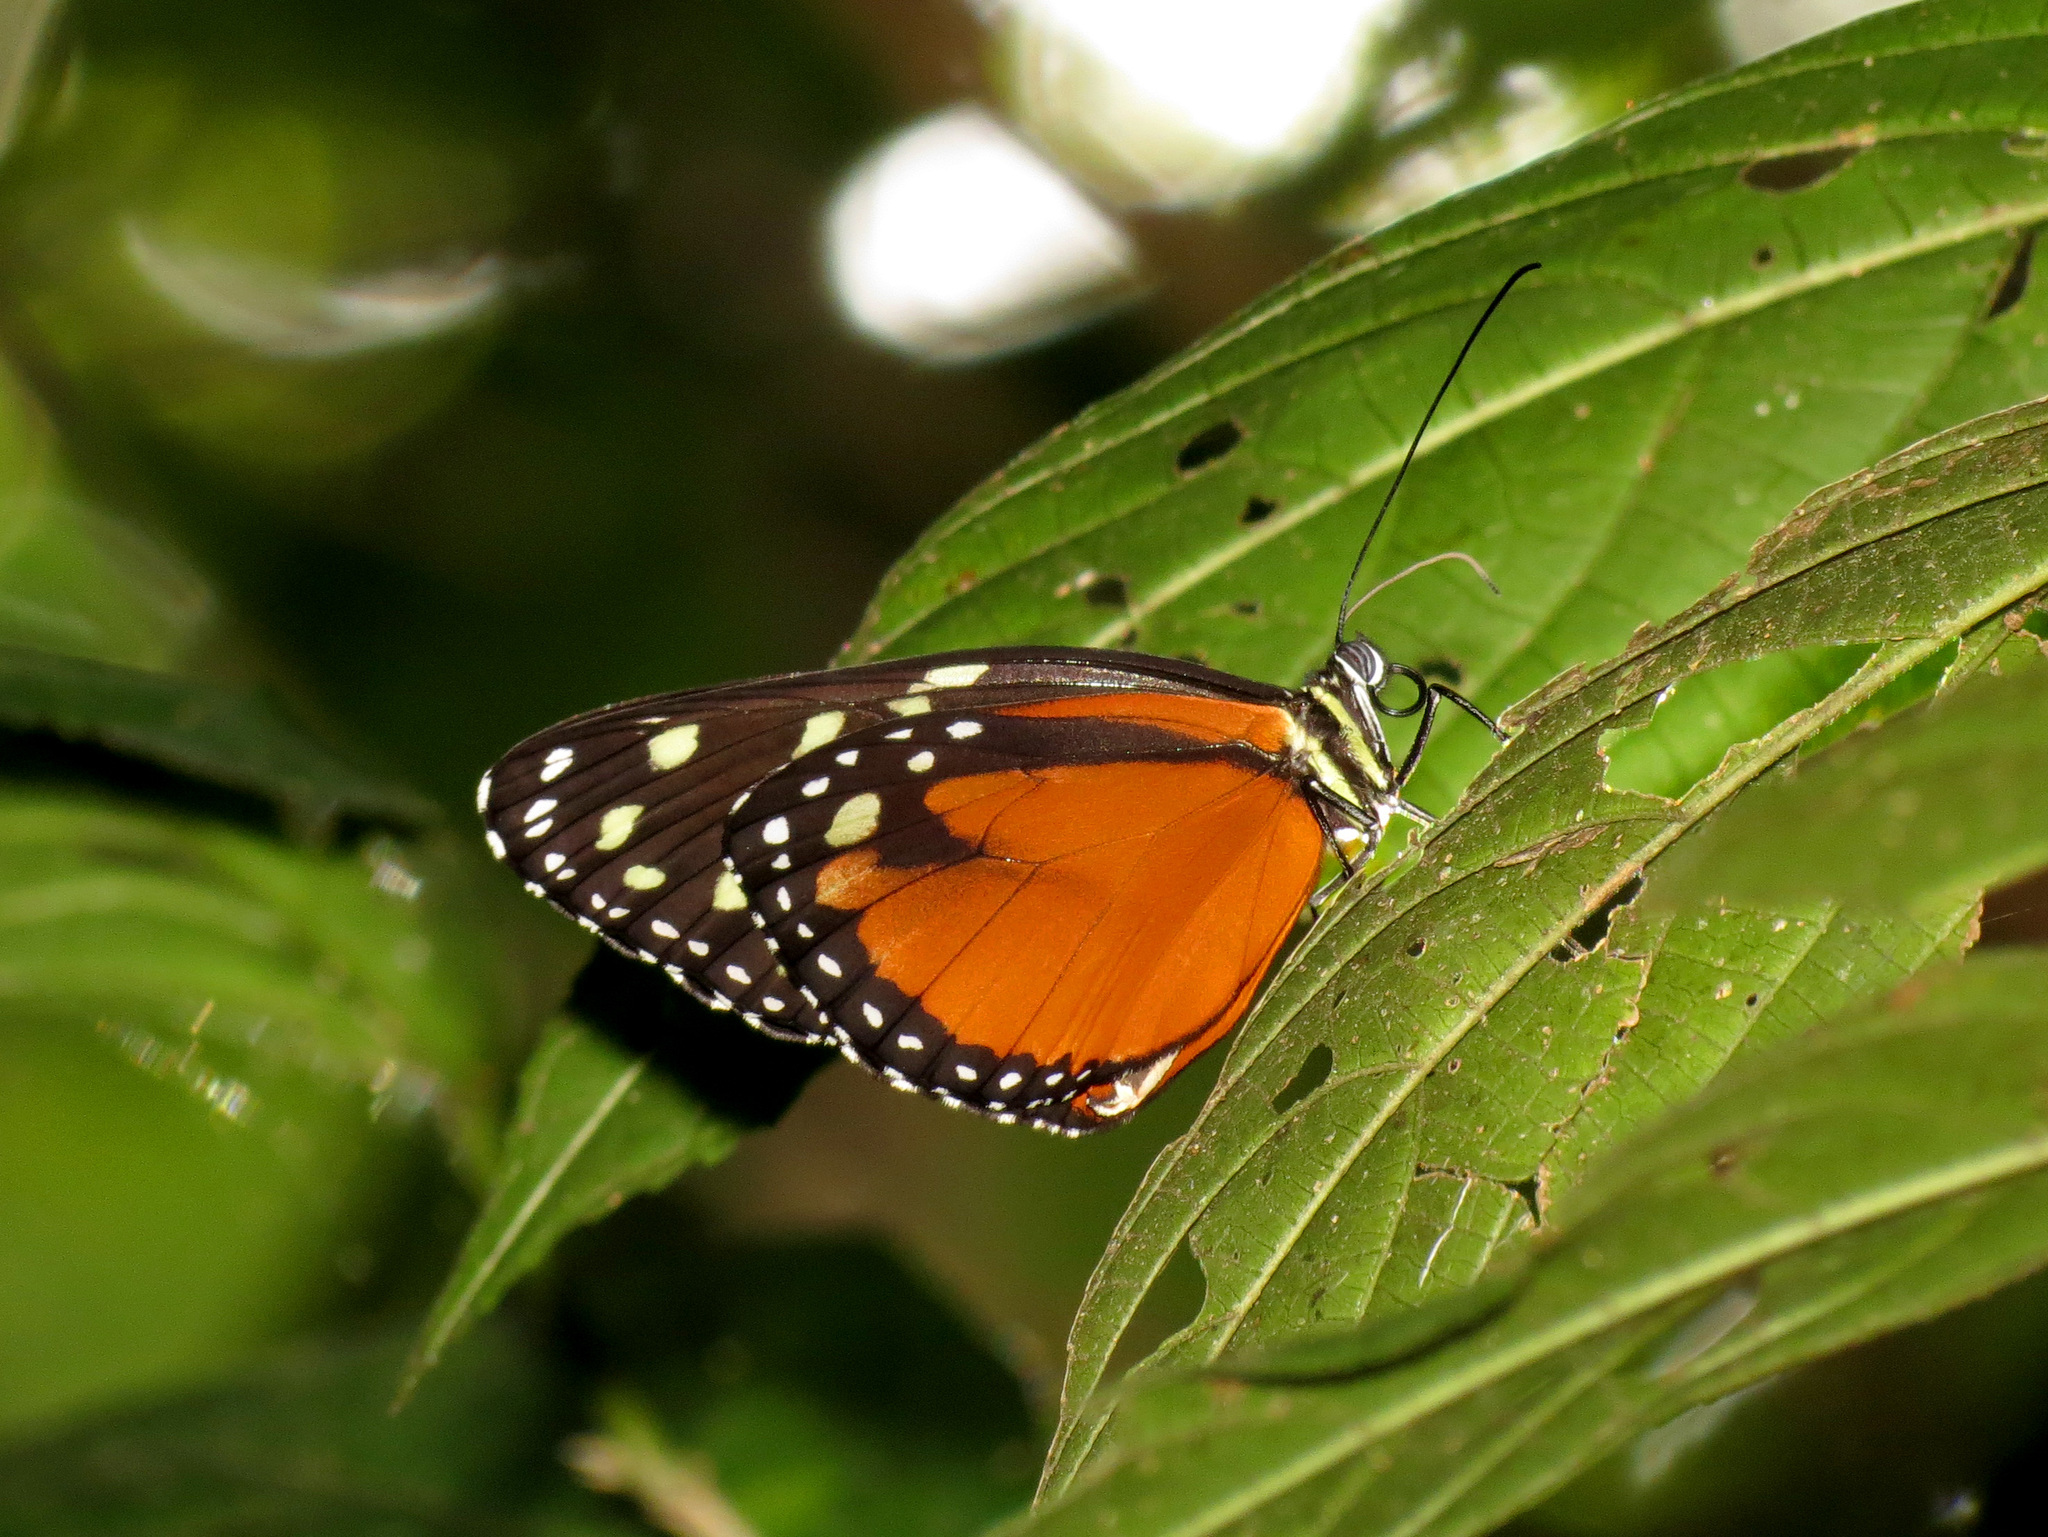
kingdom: Animalia
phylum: Arthropoda
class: Insecta
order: Lepidoptera
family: Nymphalidae
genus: Tithorea
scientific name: Tithorea tarricina
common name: Cream-spotted tigerwing
